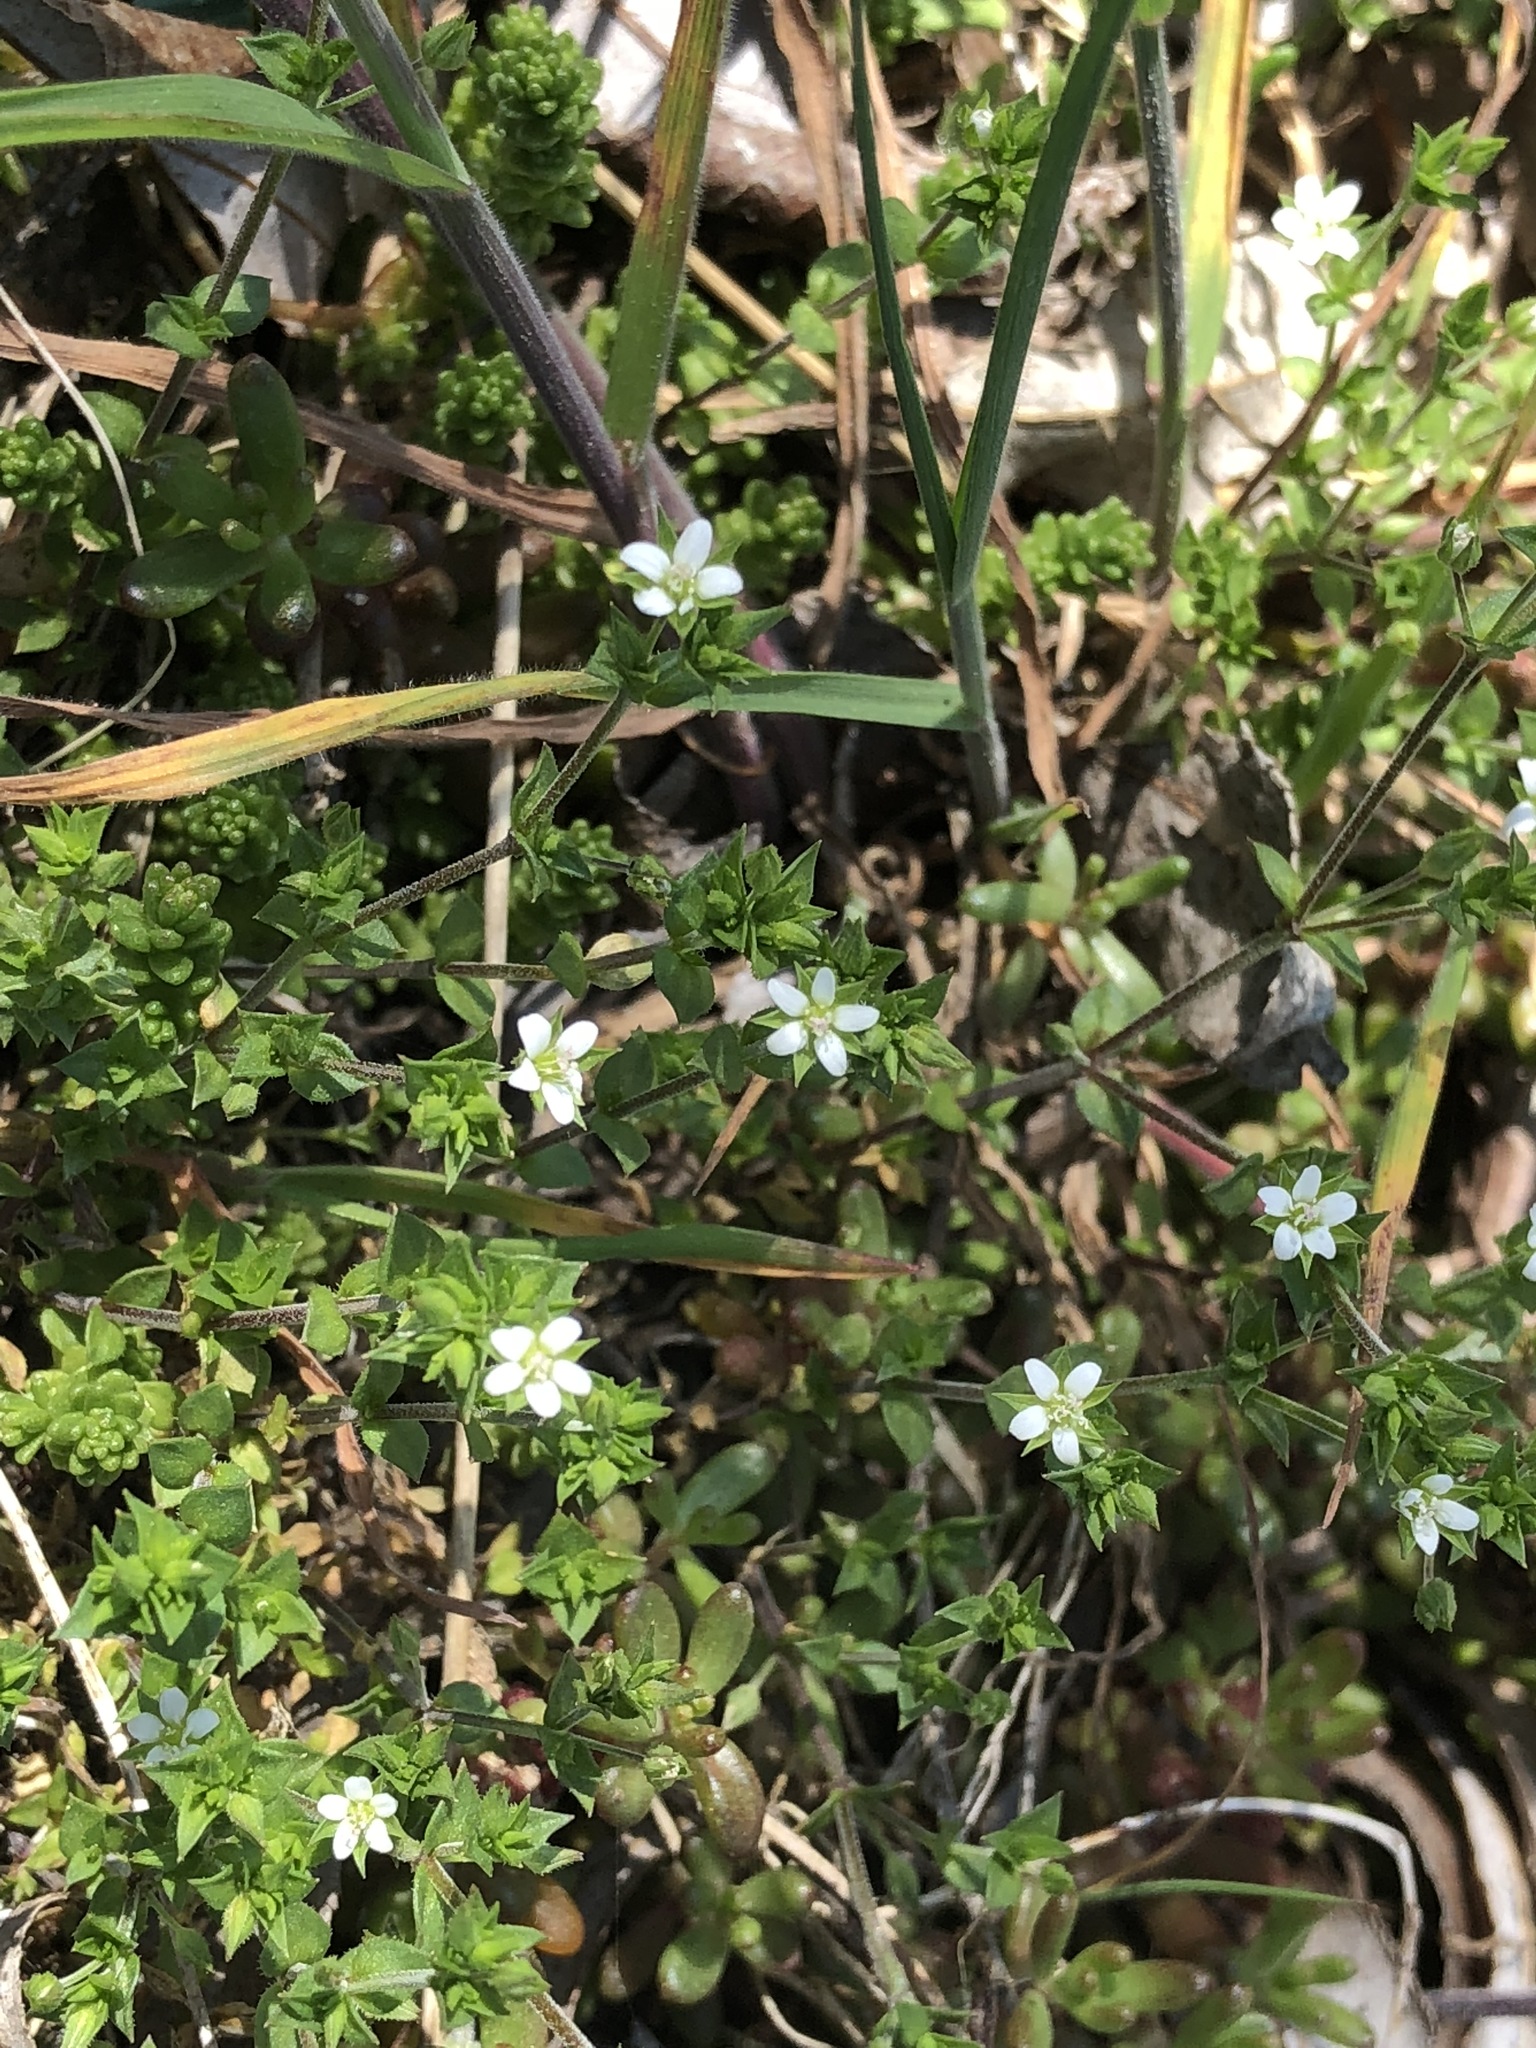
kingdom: Plantae
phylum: Tracheophyta
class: Magnoliopsida
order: Caryophyllales
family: Caryophyllaceae
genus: Arenaria
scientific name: Arenaria serpyllifolia
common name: Thyme-leaved sandwort
